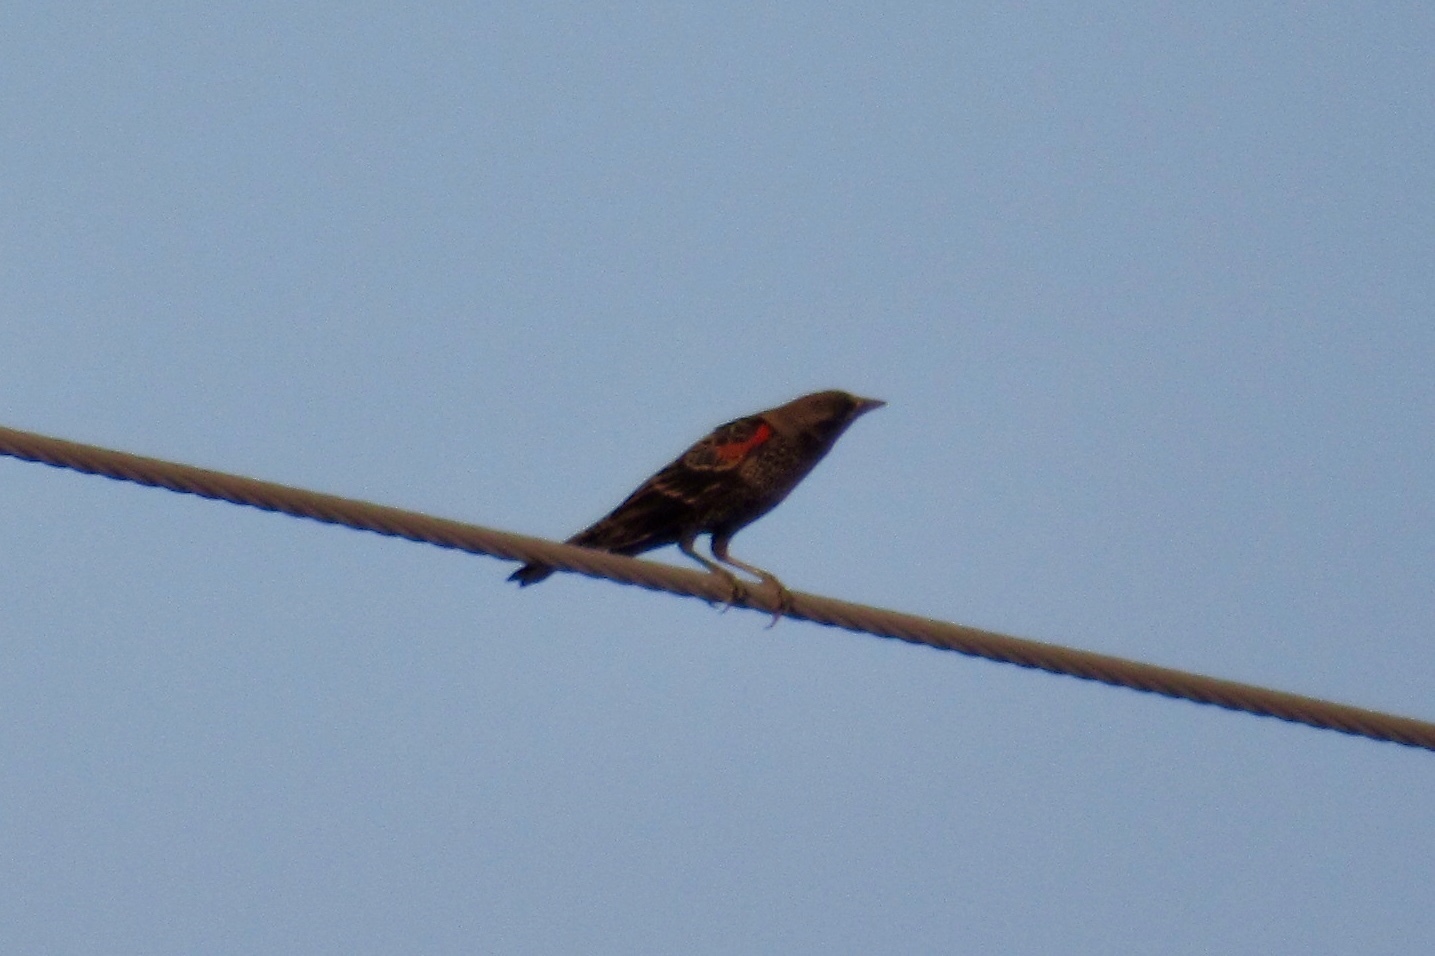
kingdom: Animalia
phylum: Chordata
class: Aves
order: Passeriformes
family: Icteridae
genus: Agelaius
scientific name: Agelaius phoeniceus
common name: Red-winged blackbird
